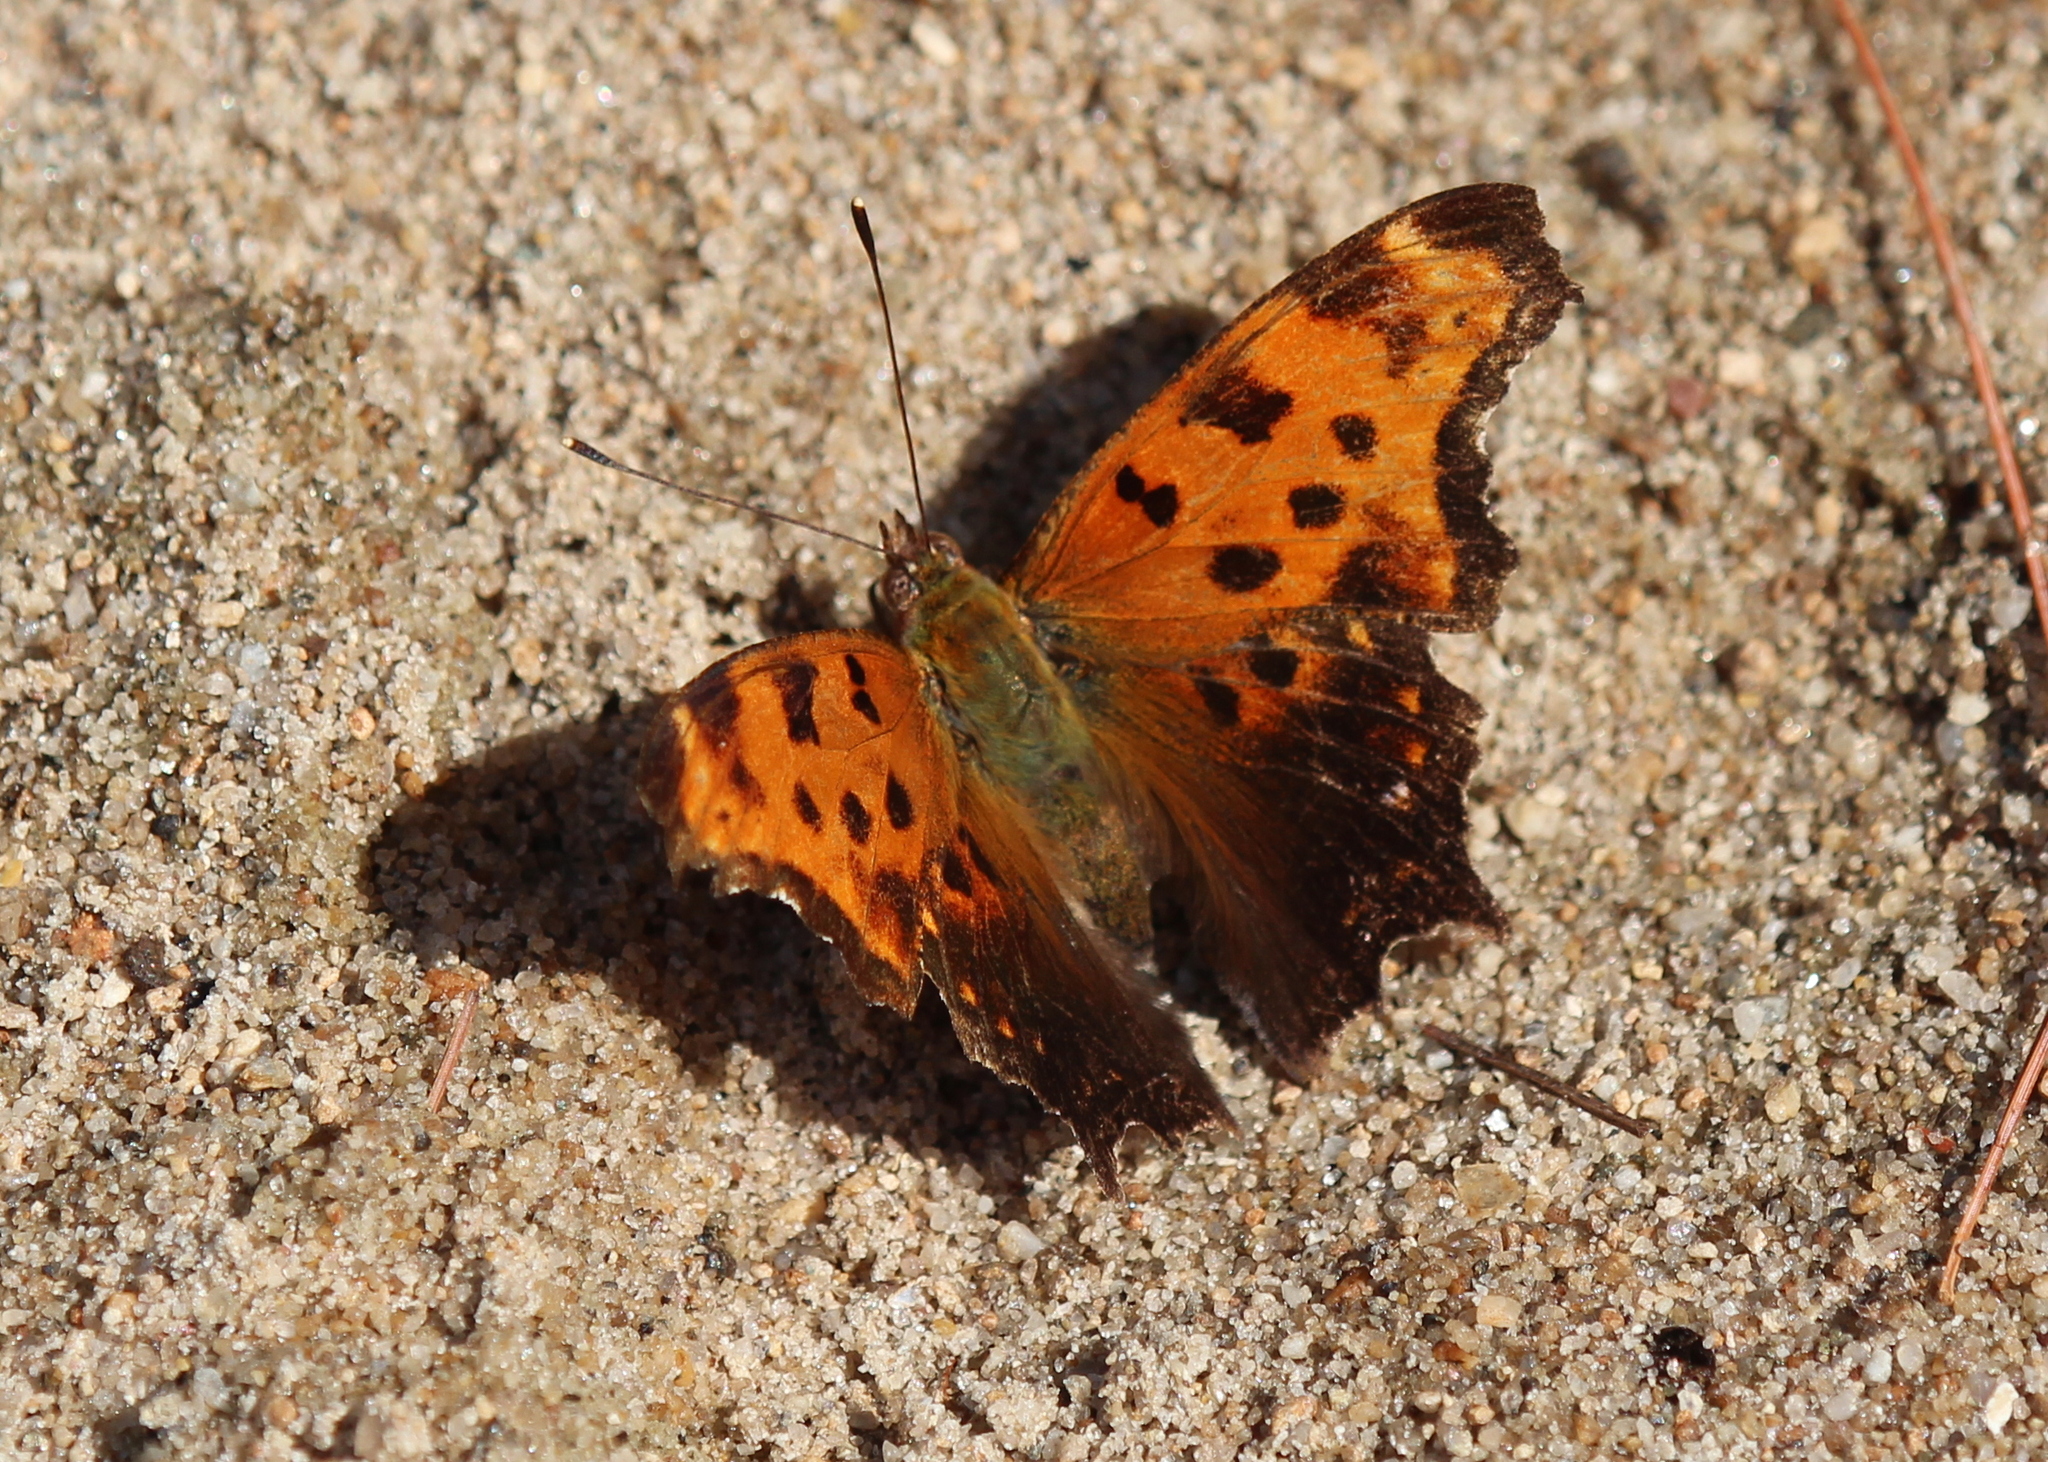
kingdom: Animalia
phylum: Arthropoda
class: Insecta
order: Lepidoptera
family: Nymphalidae
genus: Polygonia
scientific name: Polygonia comma
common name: Eastern comma
